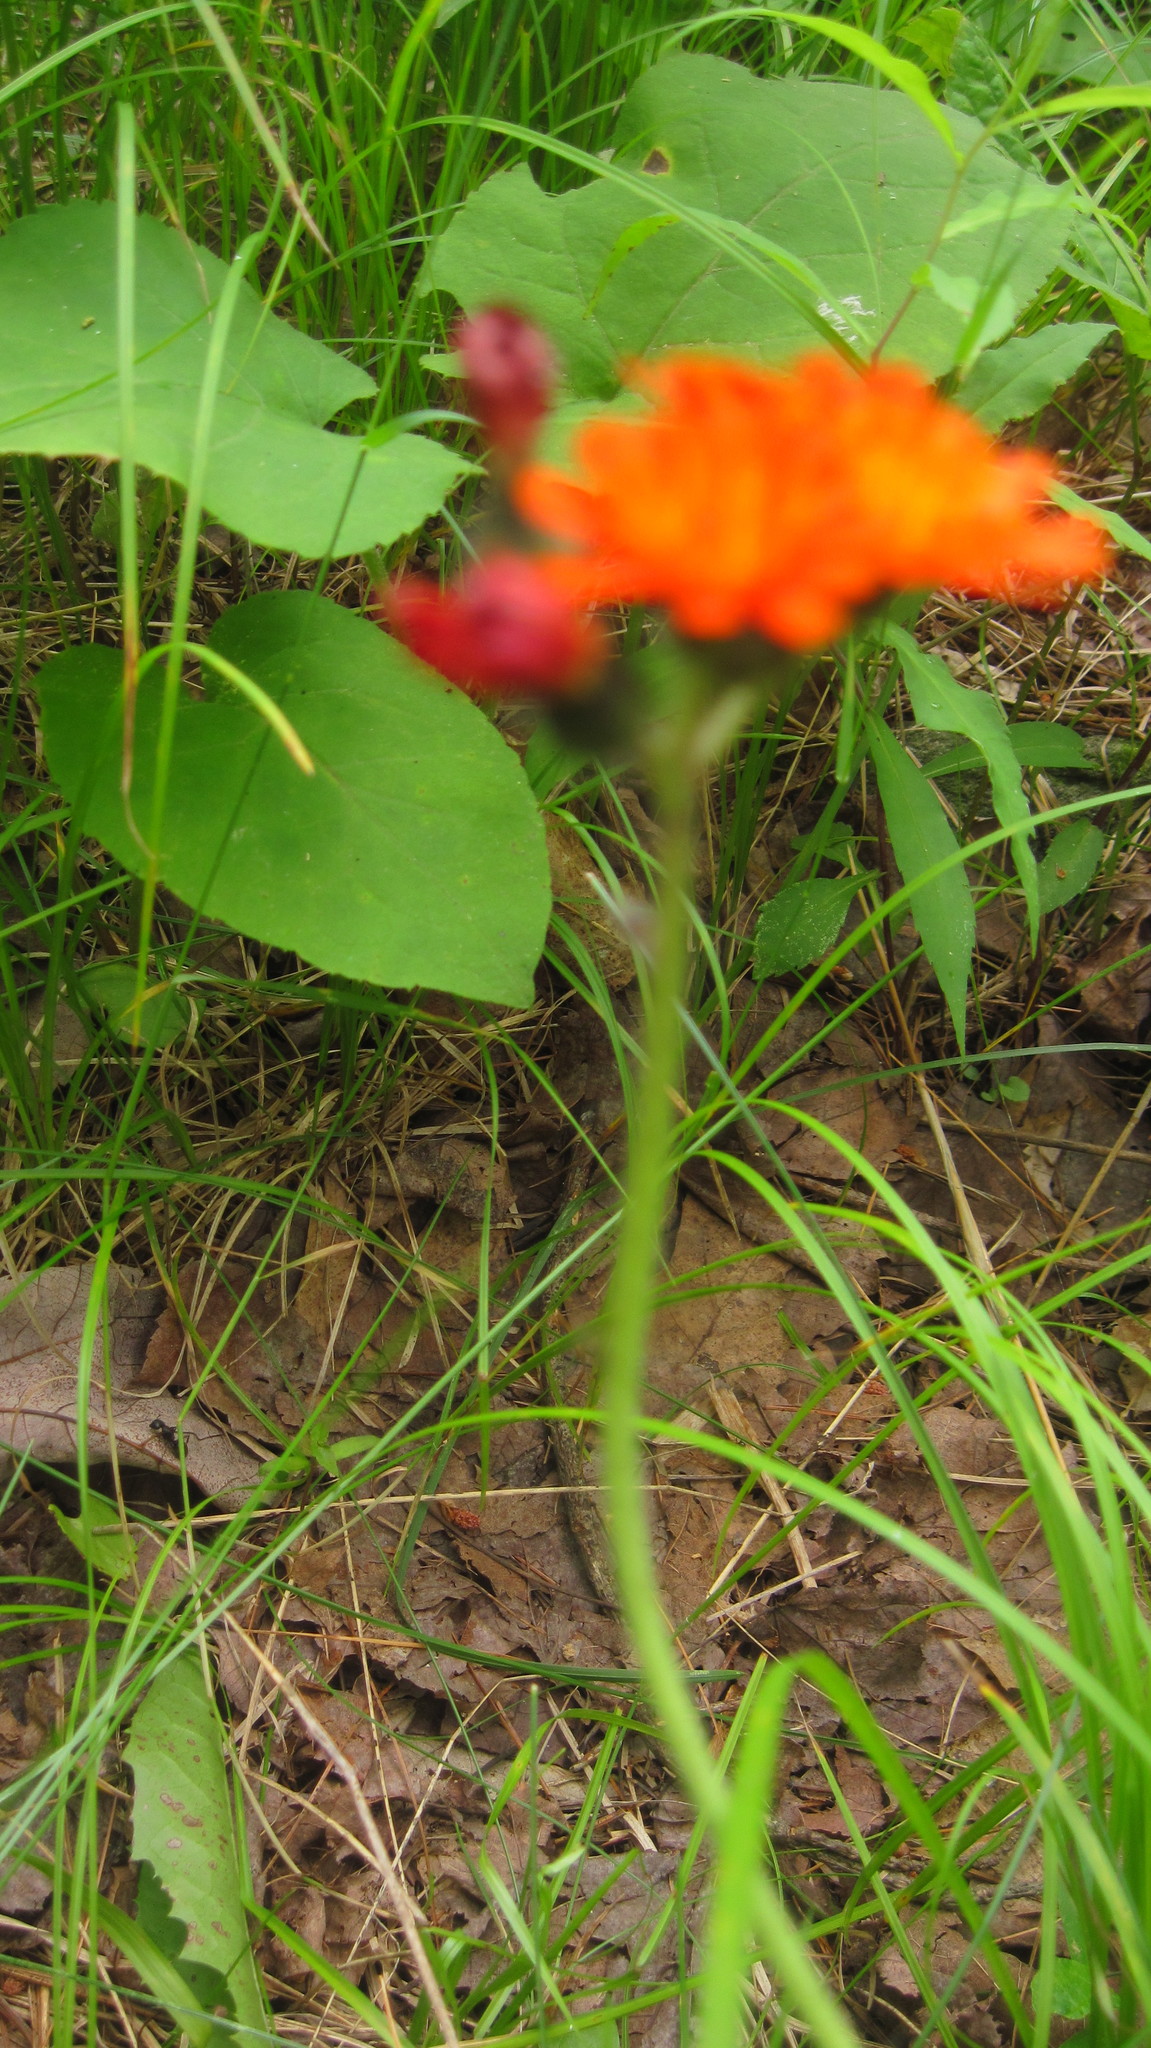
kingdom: Plantae
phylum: Tracheophyta
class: Magnoliopsida
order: Asterales
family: Asteraceae
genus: Pilosella
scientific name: Pilosella aurantiaca
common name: Fox-and-cubs
